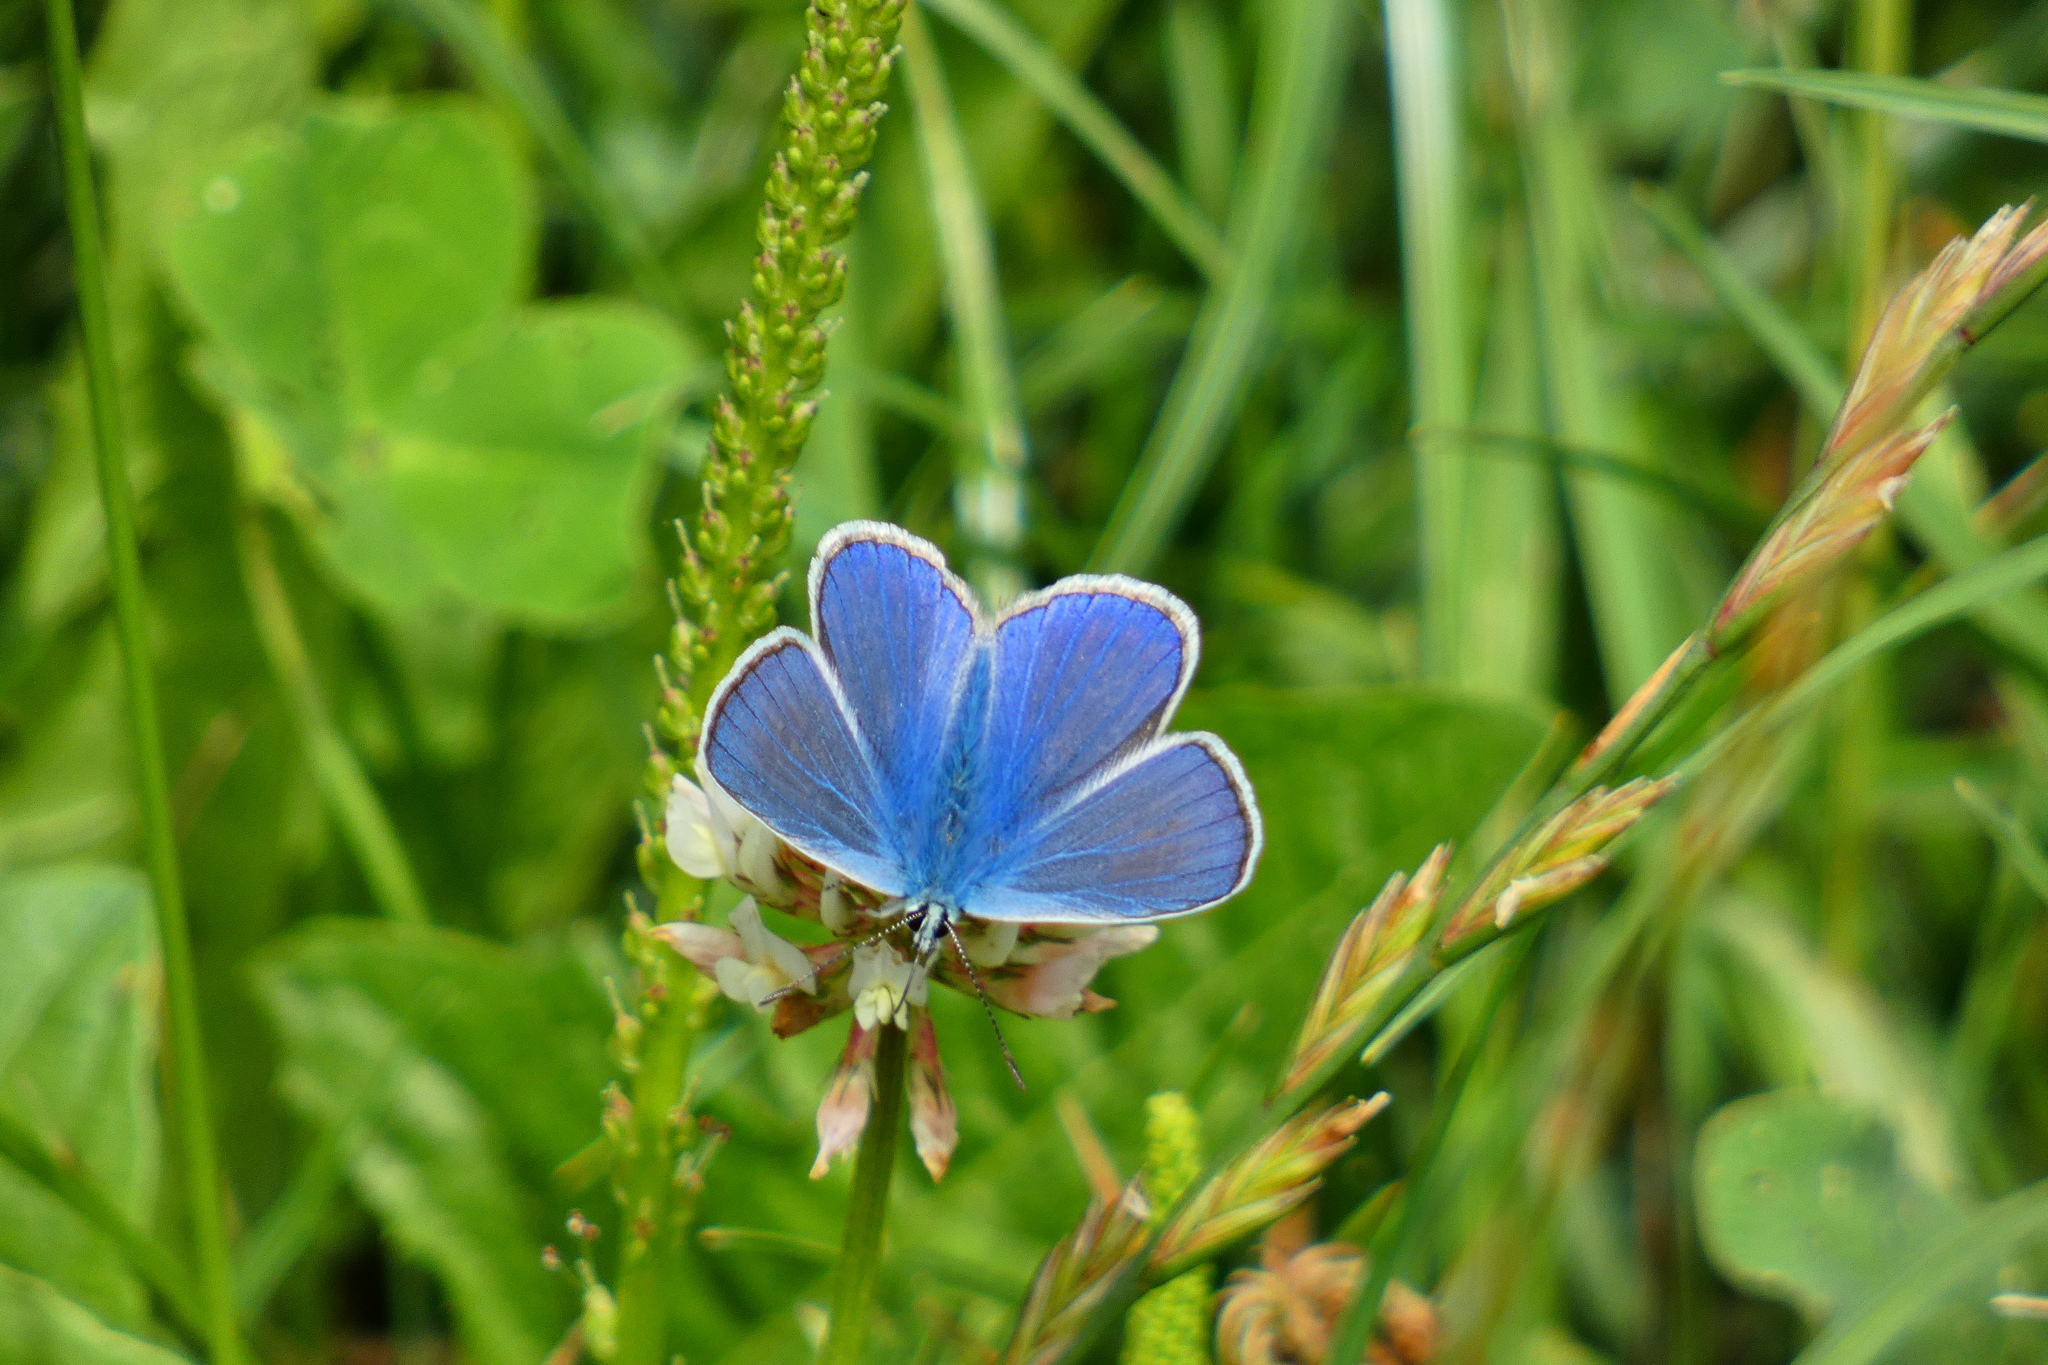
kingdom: Animalia
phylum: Arthropoda
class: Insecta
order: Lepidoptera
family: Lycaenidae
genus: Polyommatus
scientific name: Polyommatus icarus
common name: Common blue
